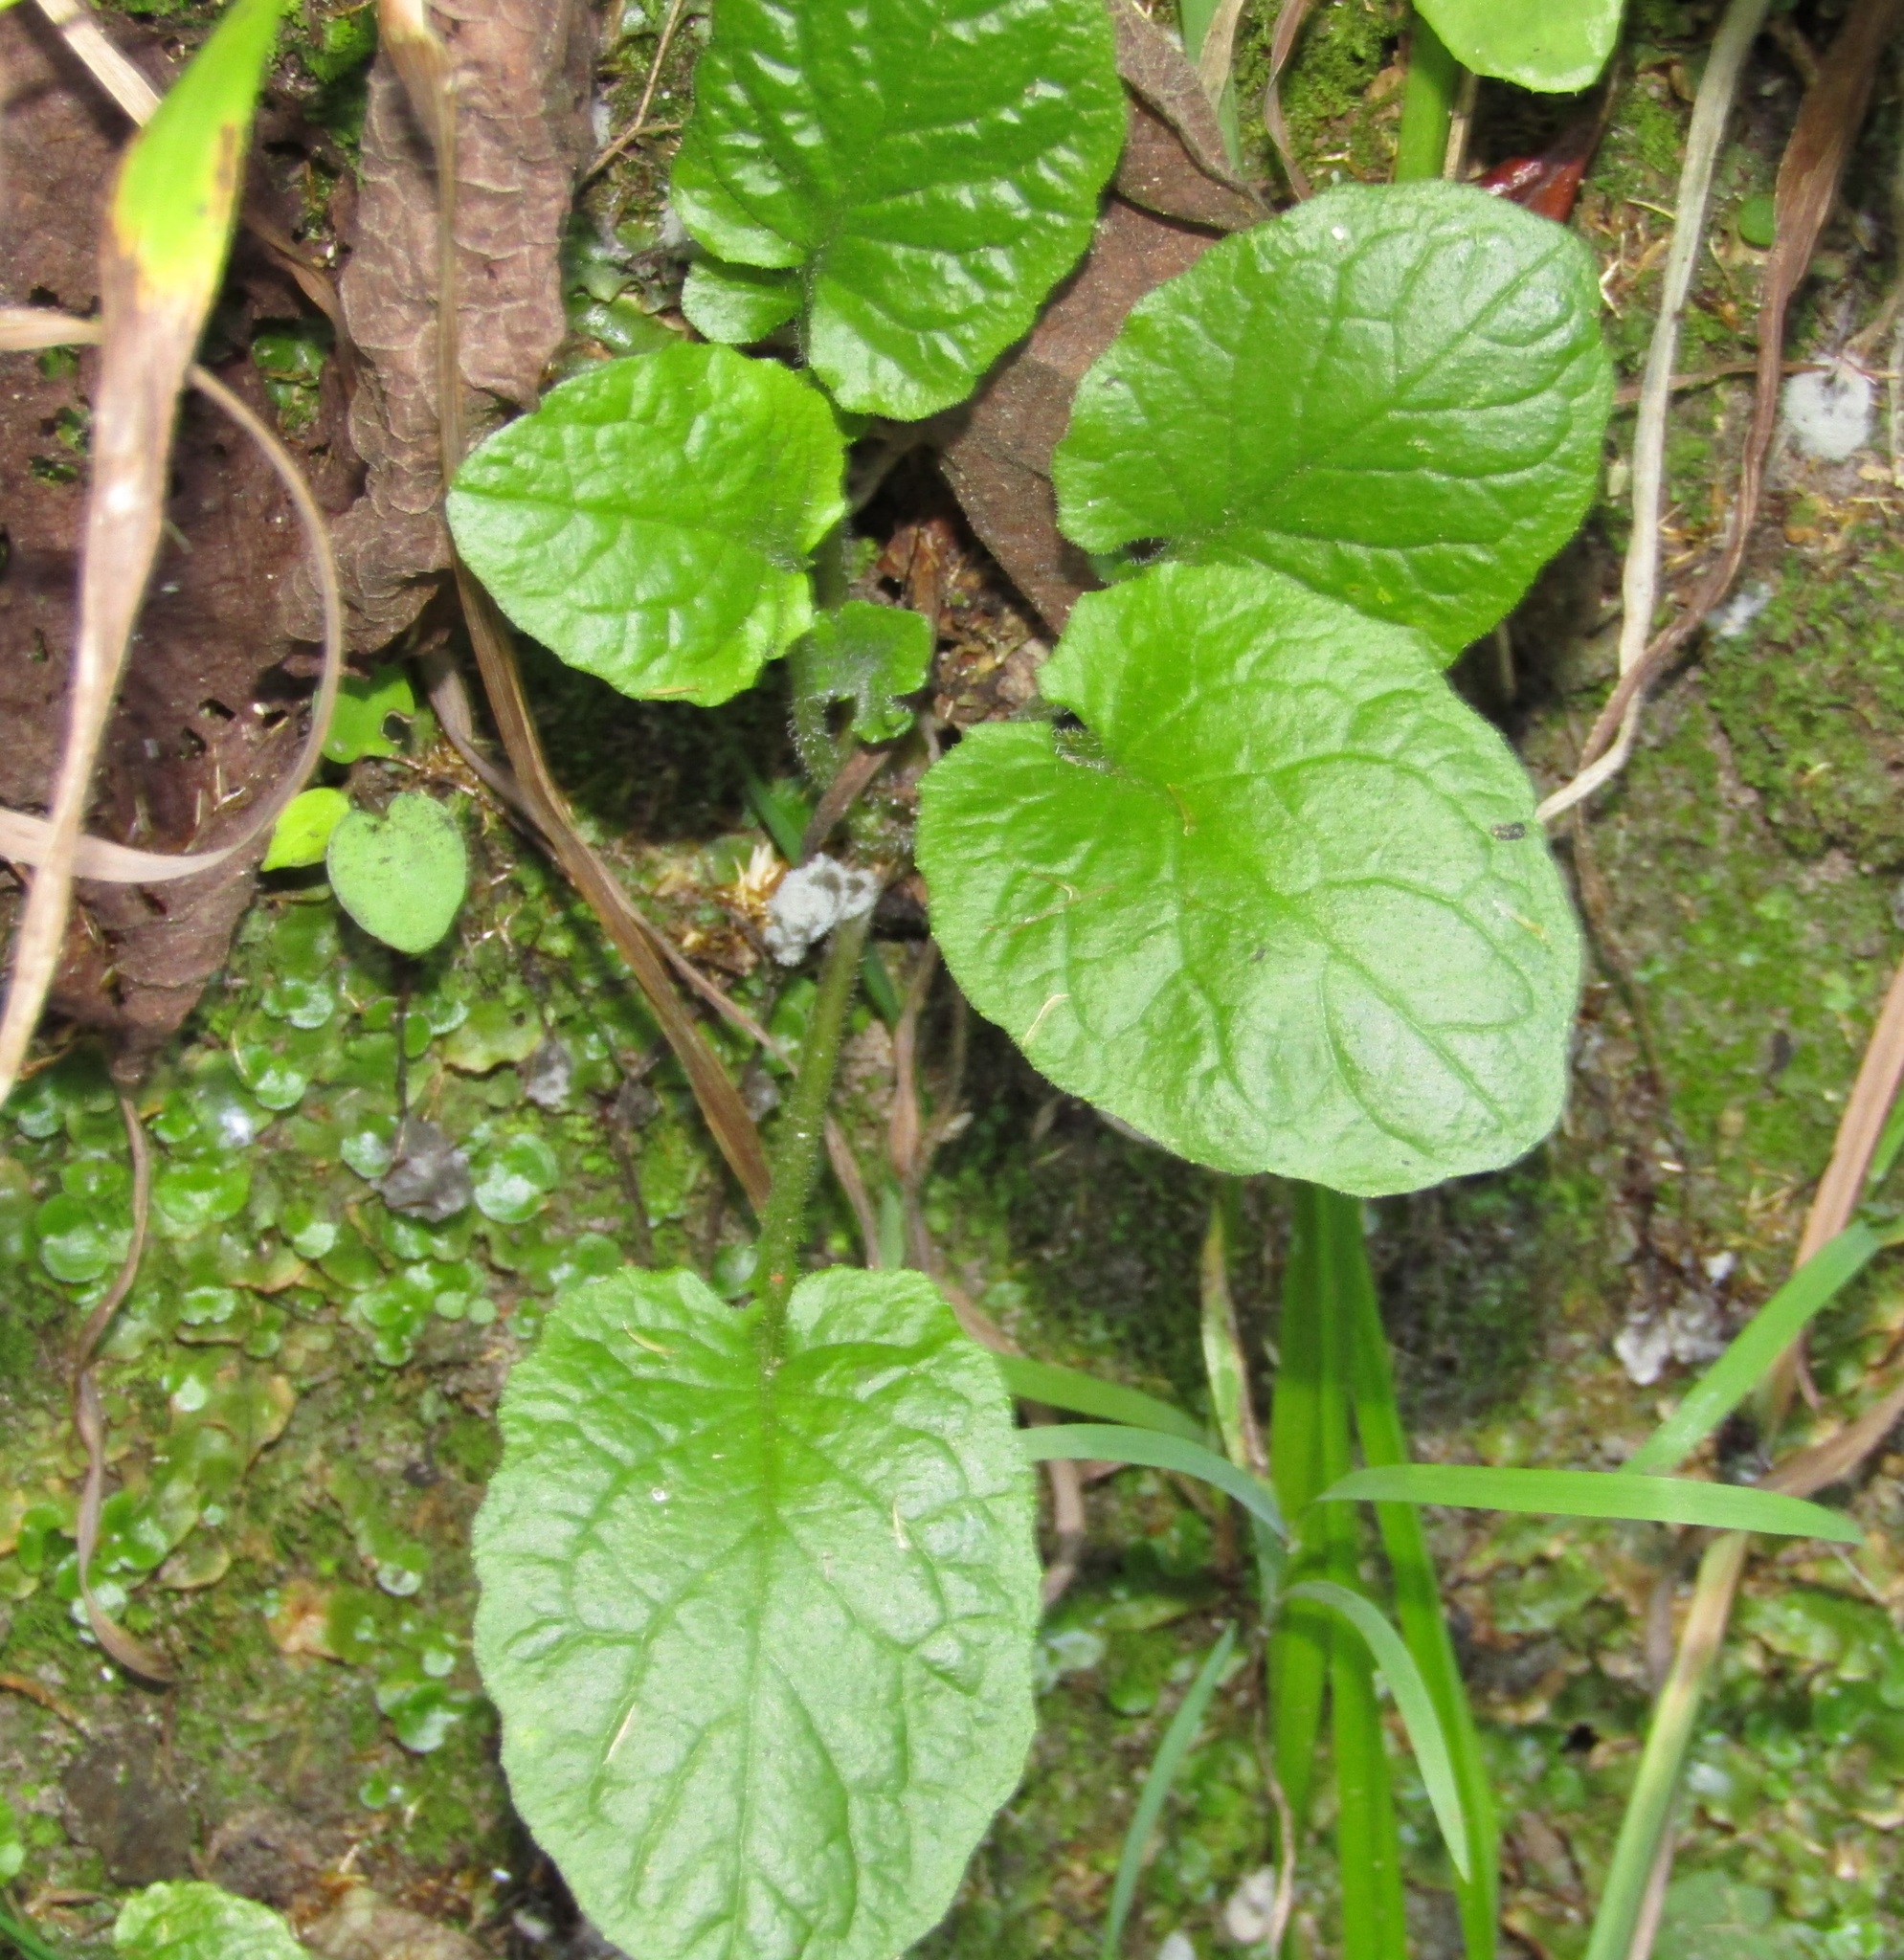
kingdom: Plantae
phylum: Tracheophyta
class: Magnoliopsida
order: Asterales
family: Asteraceae
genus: Lapsana
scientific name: Lapsana communis
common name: Nipplewort
